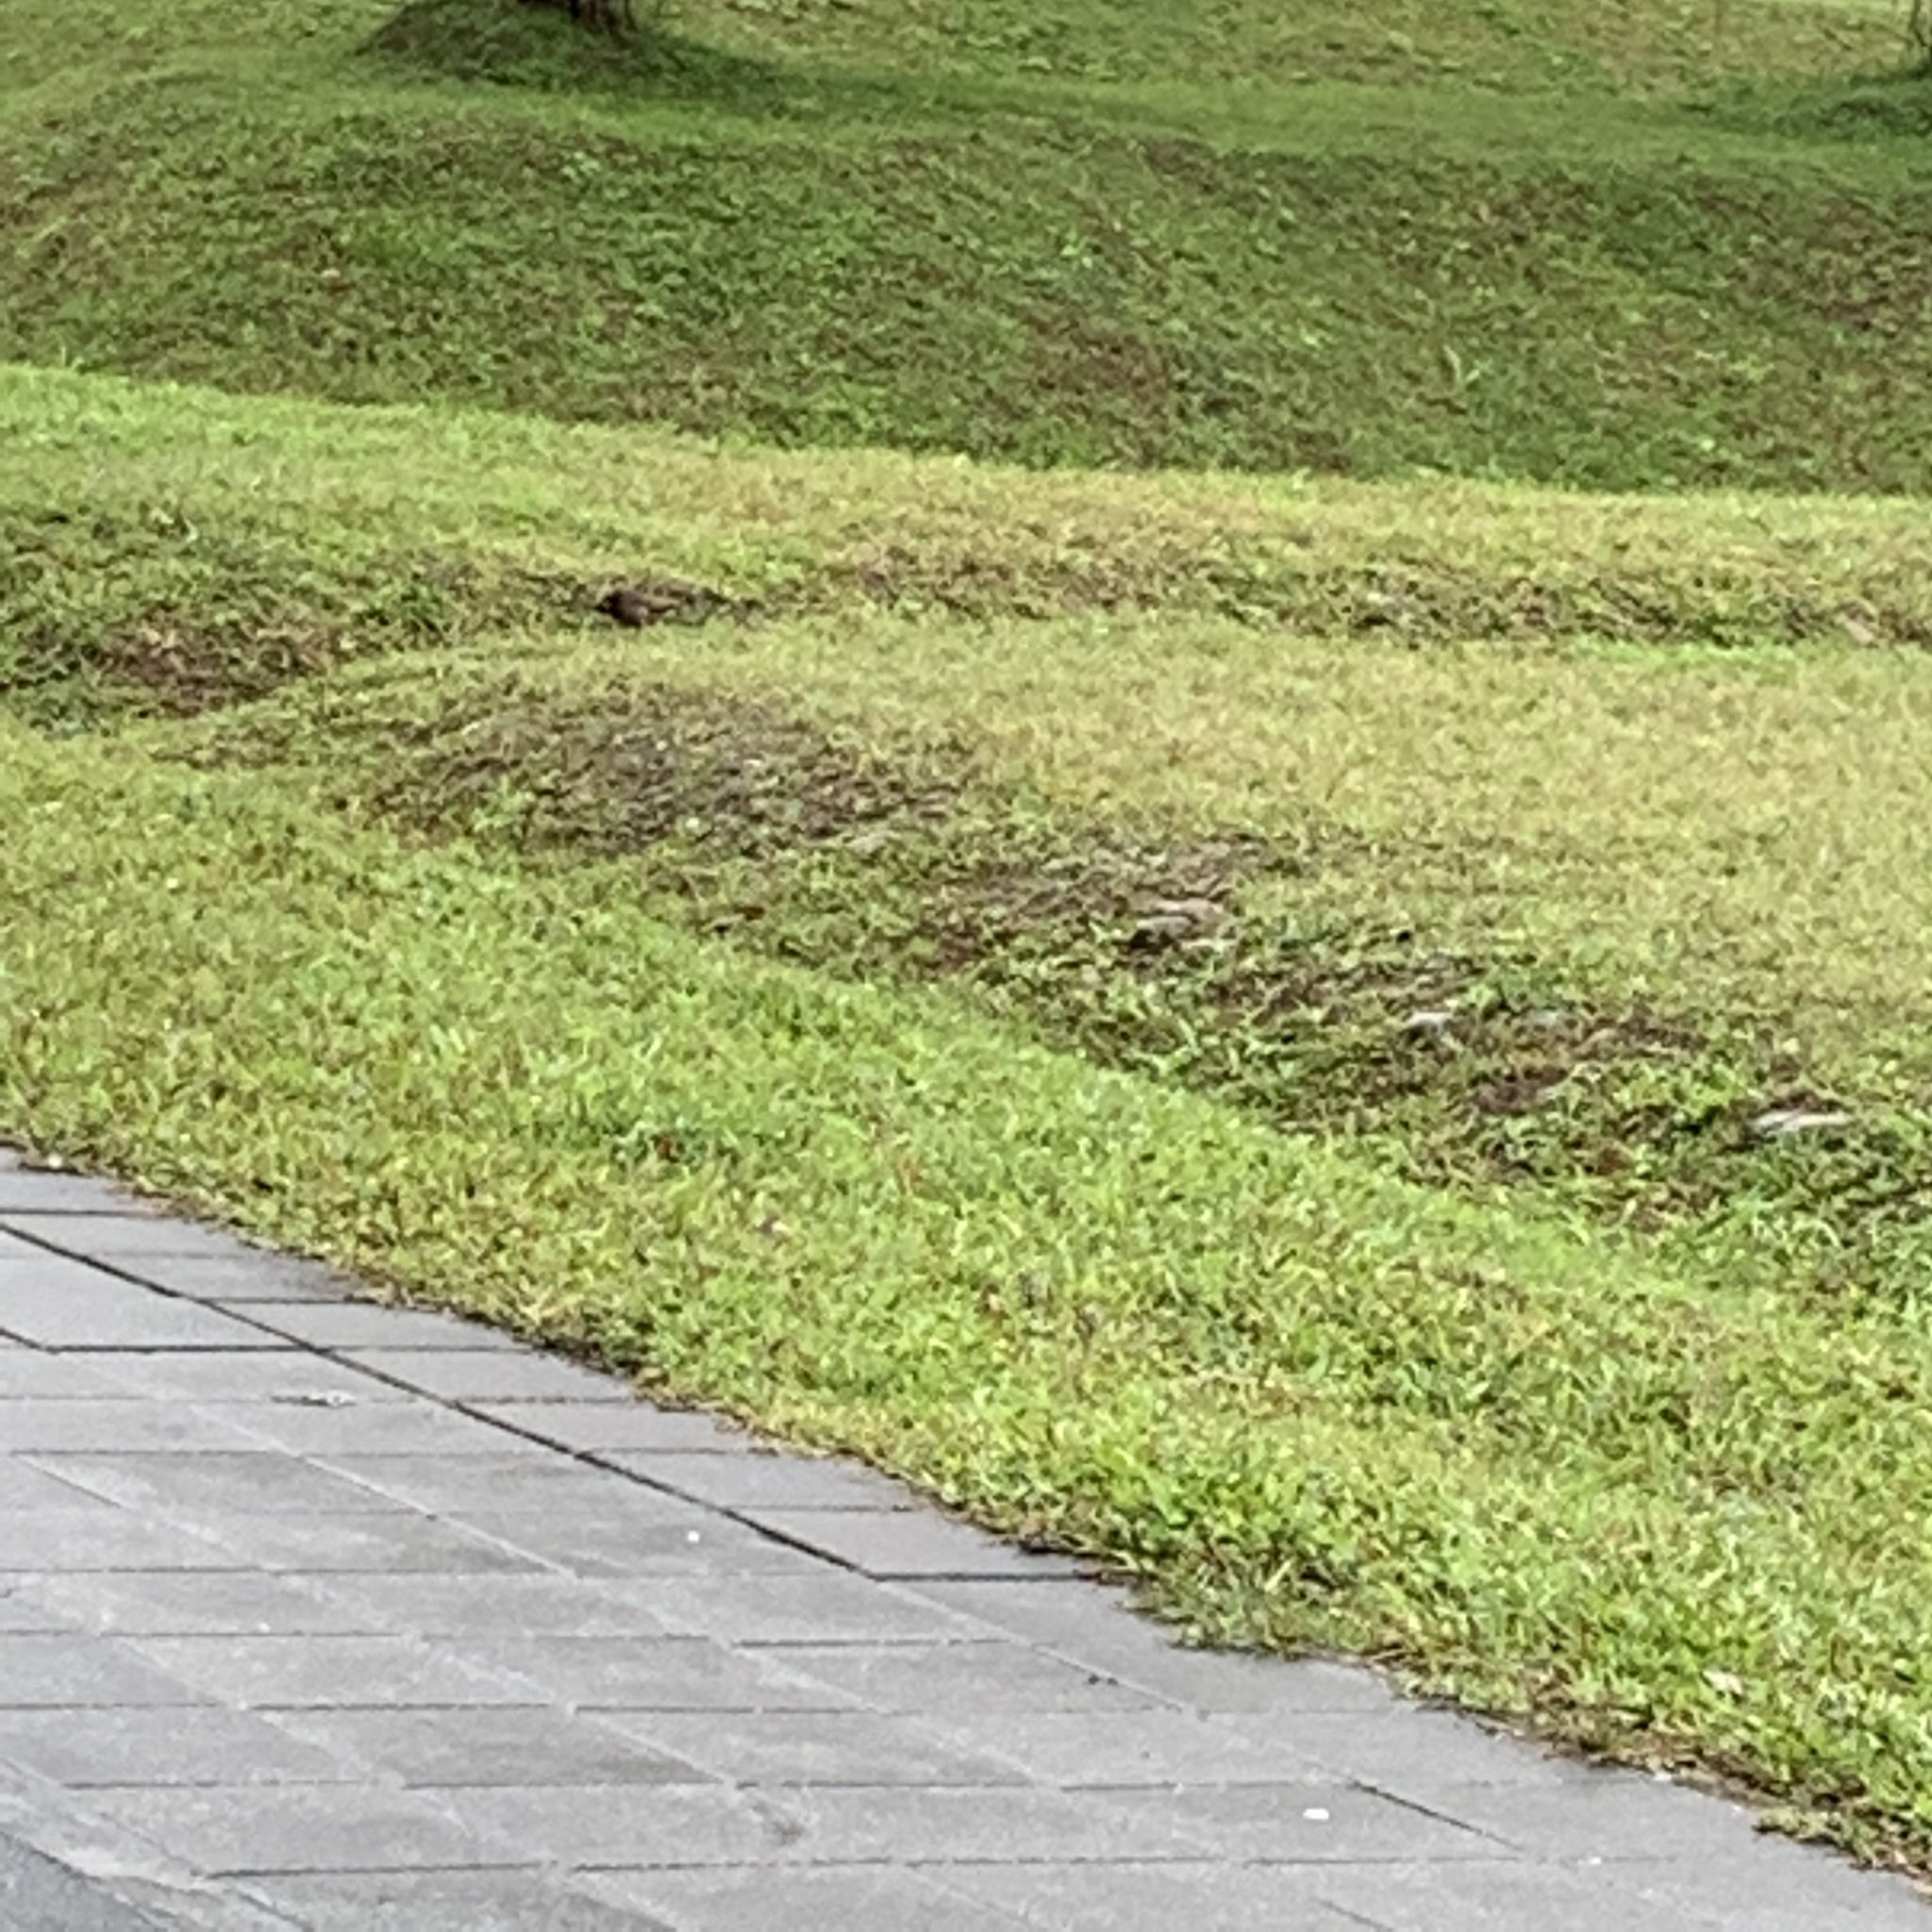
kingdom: Animalia
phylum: Chordata
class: Aves
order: Passeriformes
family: Sturnidae
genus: Acridotheres
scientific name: Acridotheres tristis
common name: Common myna
